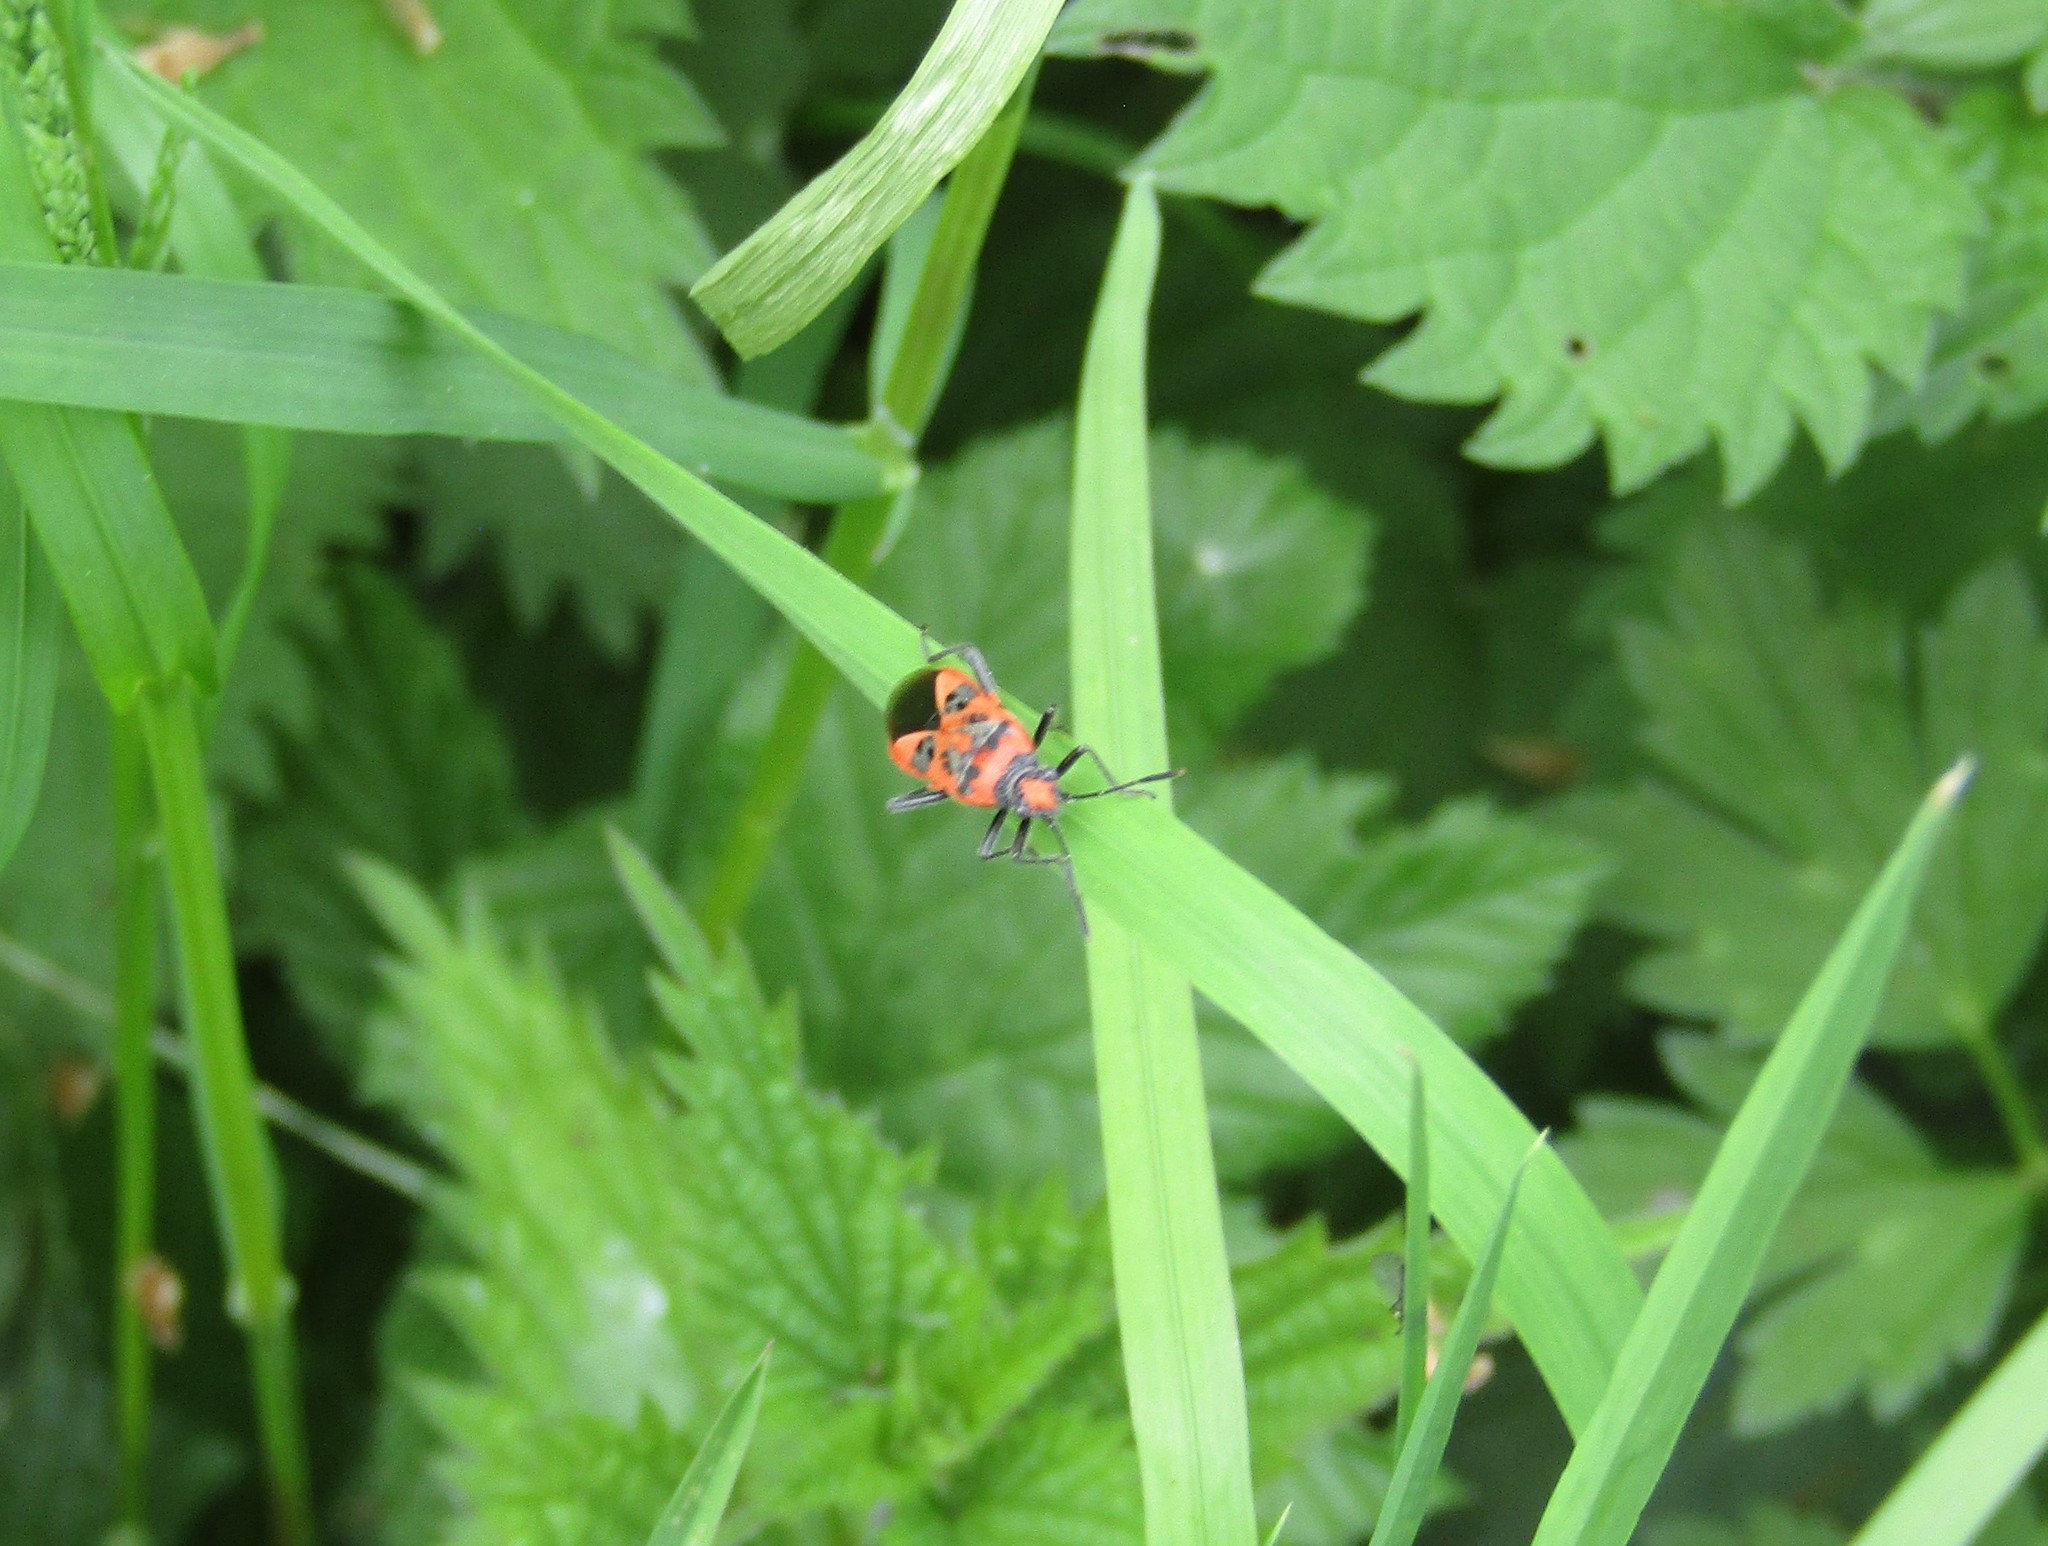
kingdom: Animalia
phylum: Arthropoda
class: Insecta
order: Hemiptera
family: Rhopalidae
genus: Corizus
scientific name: Corizus hyoscyami
